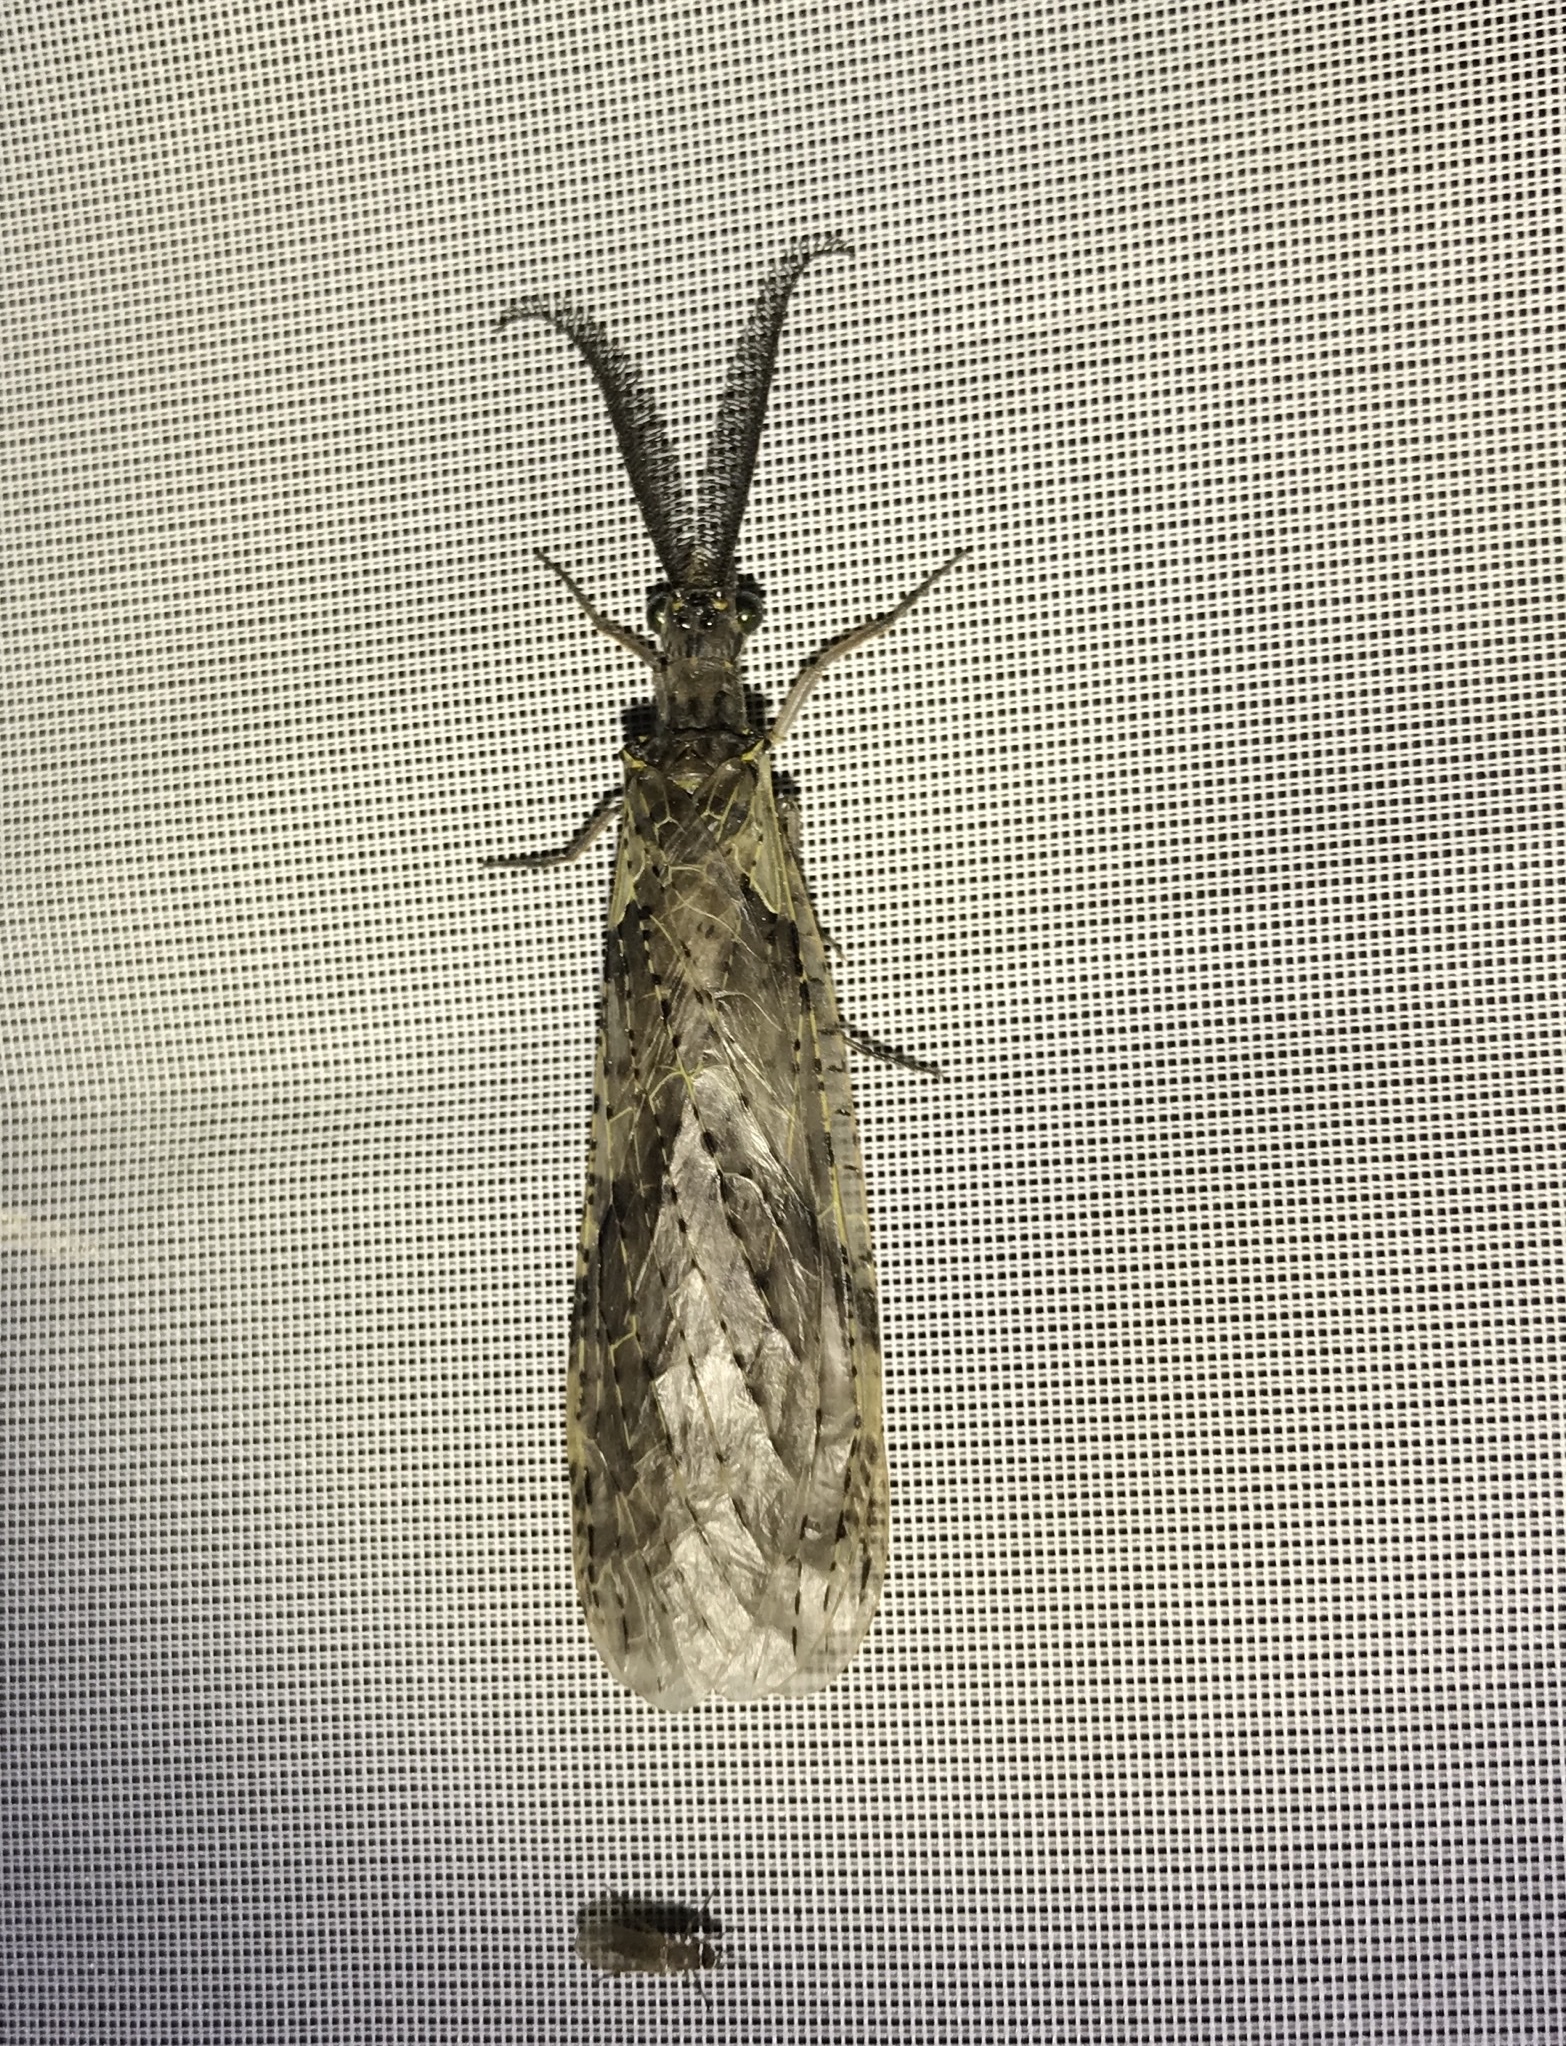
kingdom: Animalia
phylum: Arthropoda
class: Insecta
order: Megaloptera
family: Corydalidae
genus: Chauliodes
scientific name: Chauliodes rastricornis
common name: Spring fishfly
